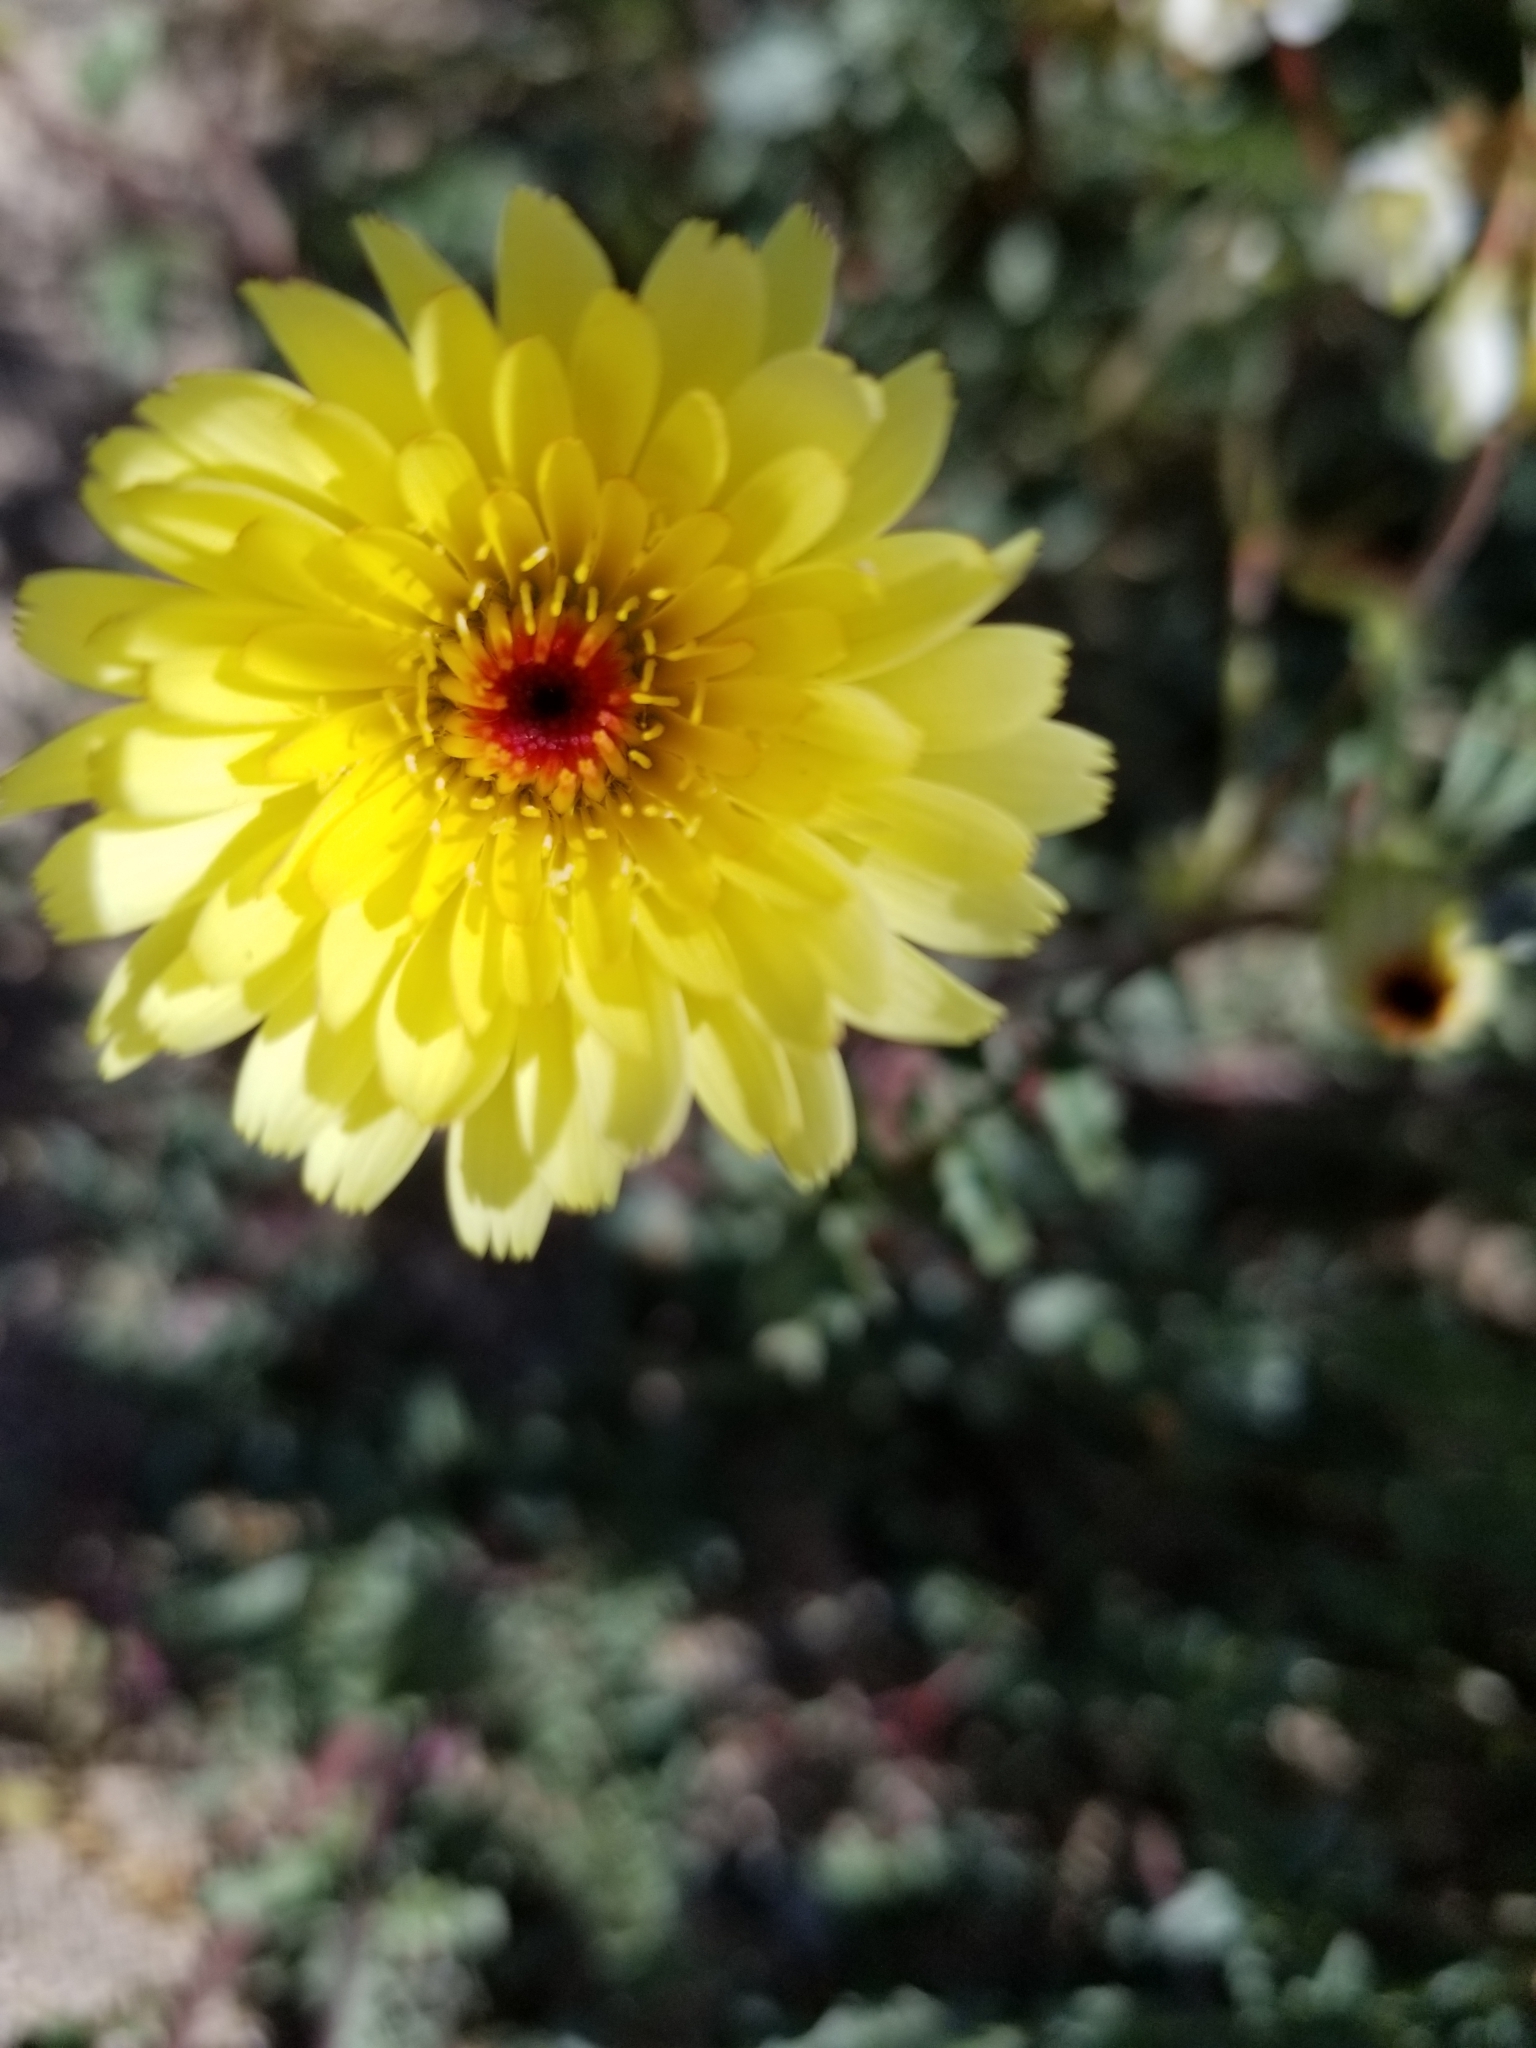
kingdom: Plantae
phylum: Tracheophyta
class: Magnoliopsida
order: Asterales
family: Asteraceae
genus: Malacothrix
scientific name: Malacothrix glabrata
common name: Smooth desert-dandelion
